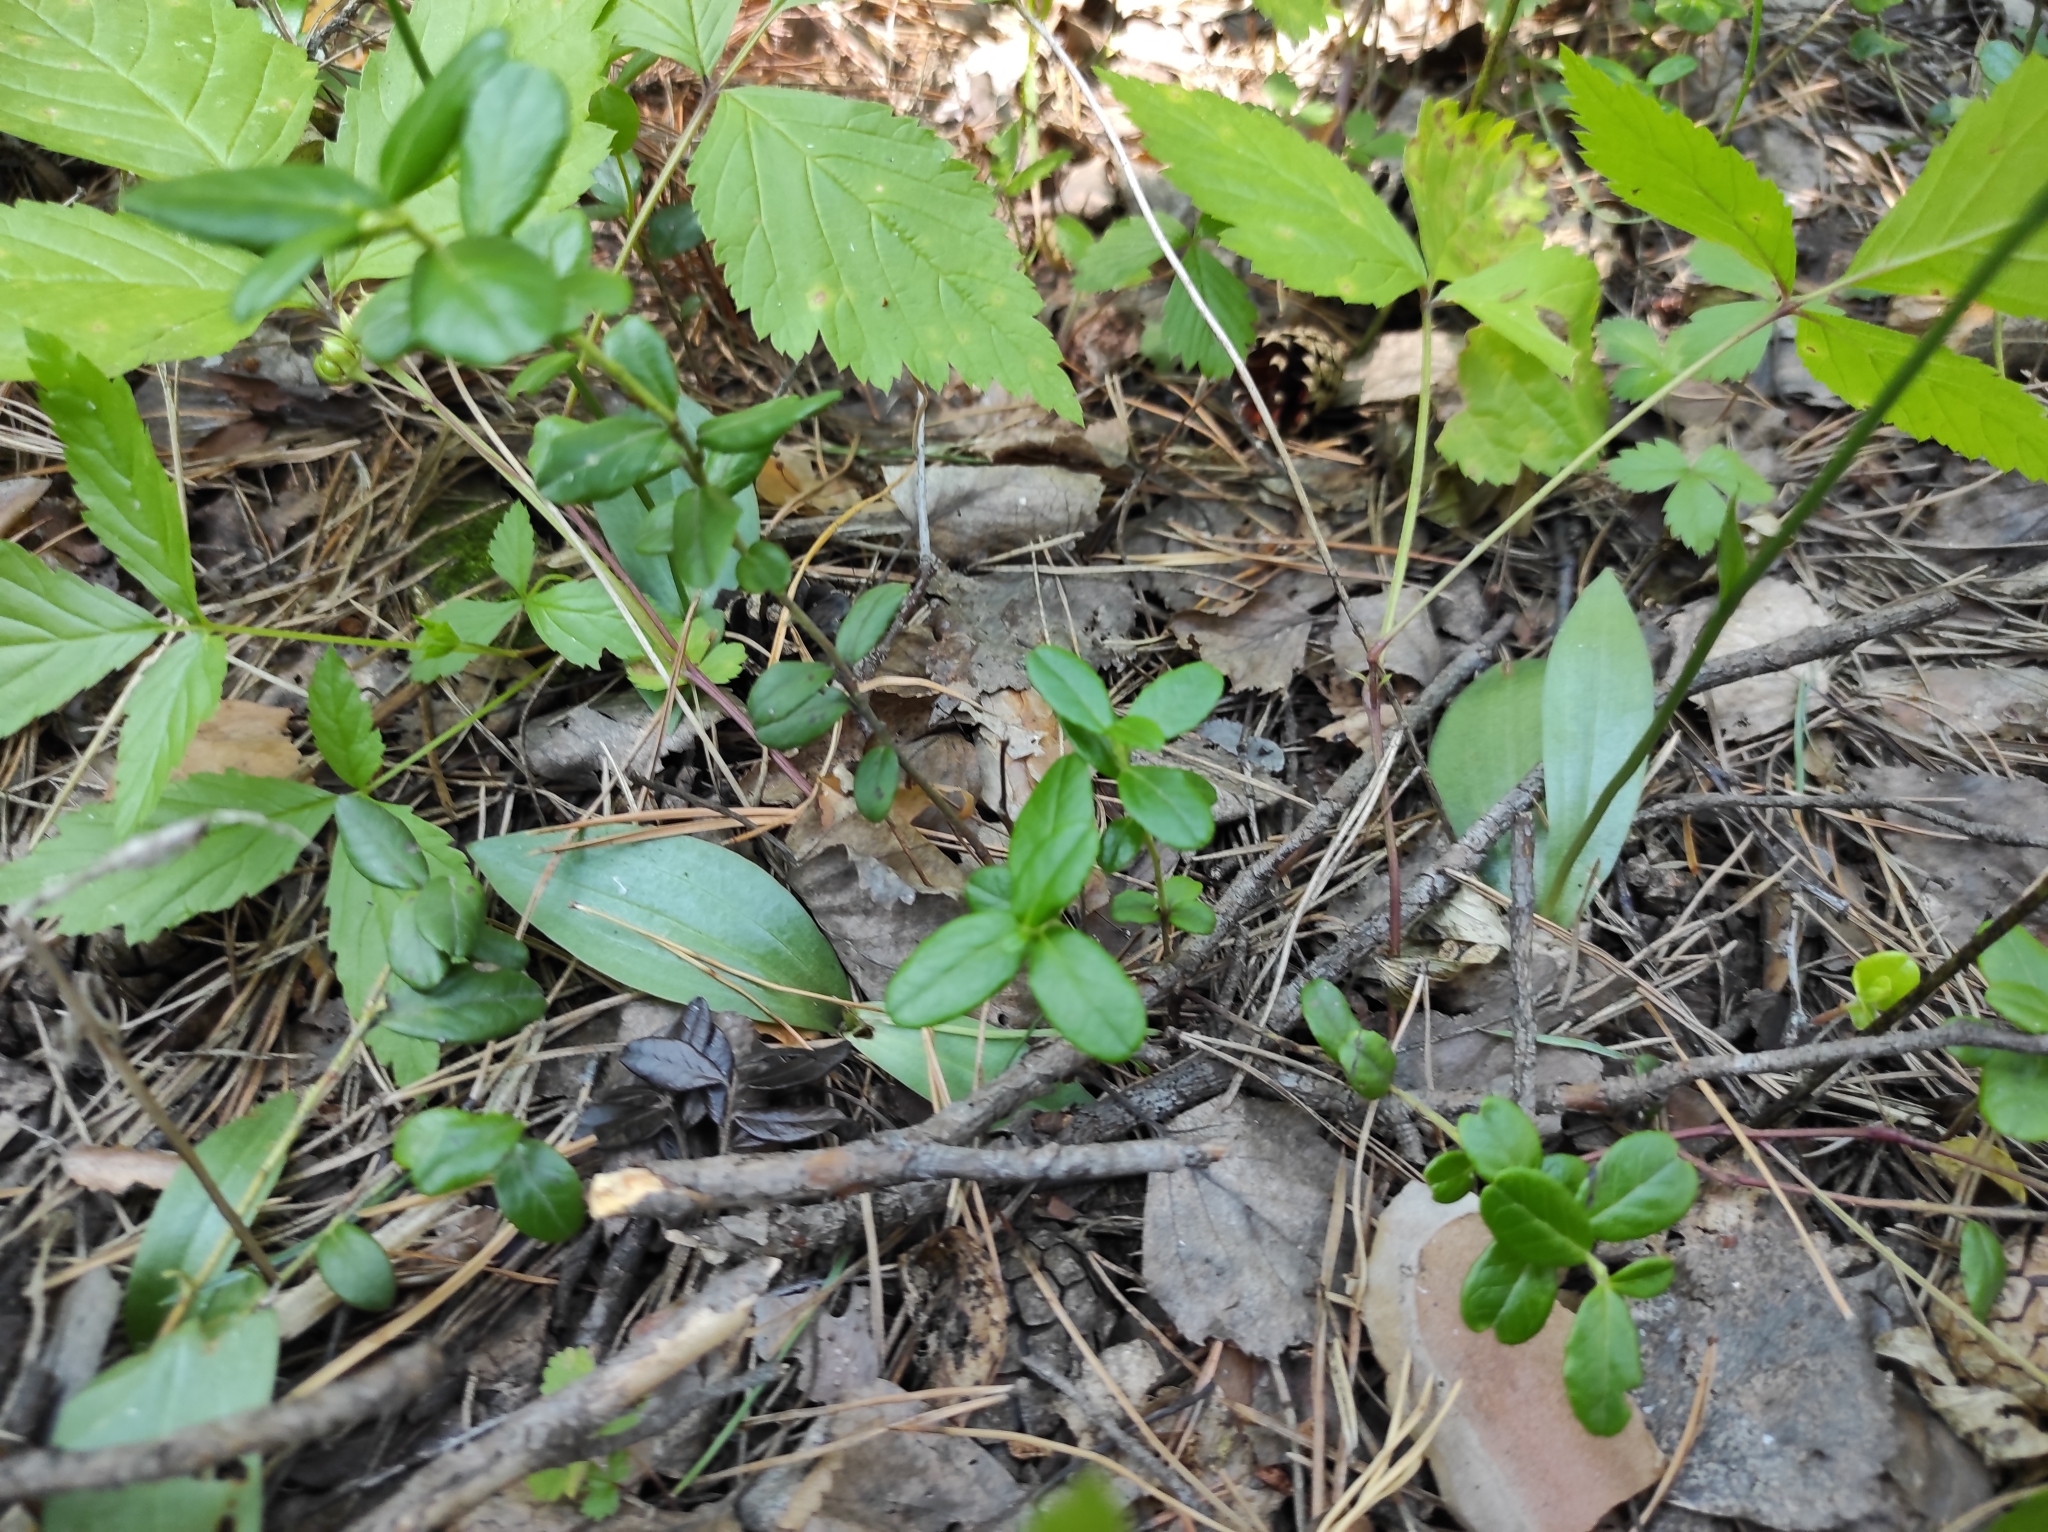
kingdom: Plantae
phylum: Tracheophyta
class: Liliopsida
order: Asparagales
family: Orchidaceae
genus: Hemipilia
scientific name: Hemipilia cucullata
